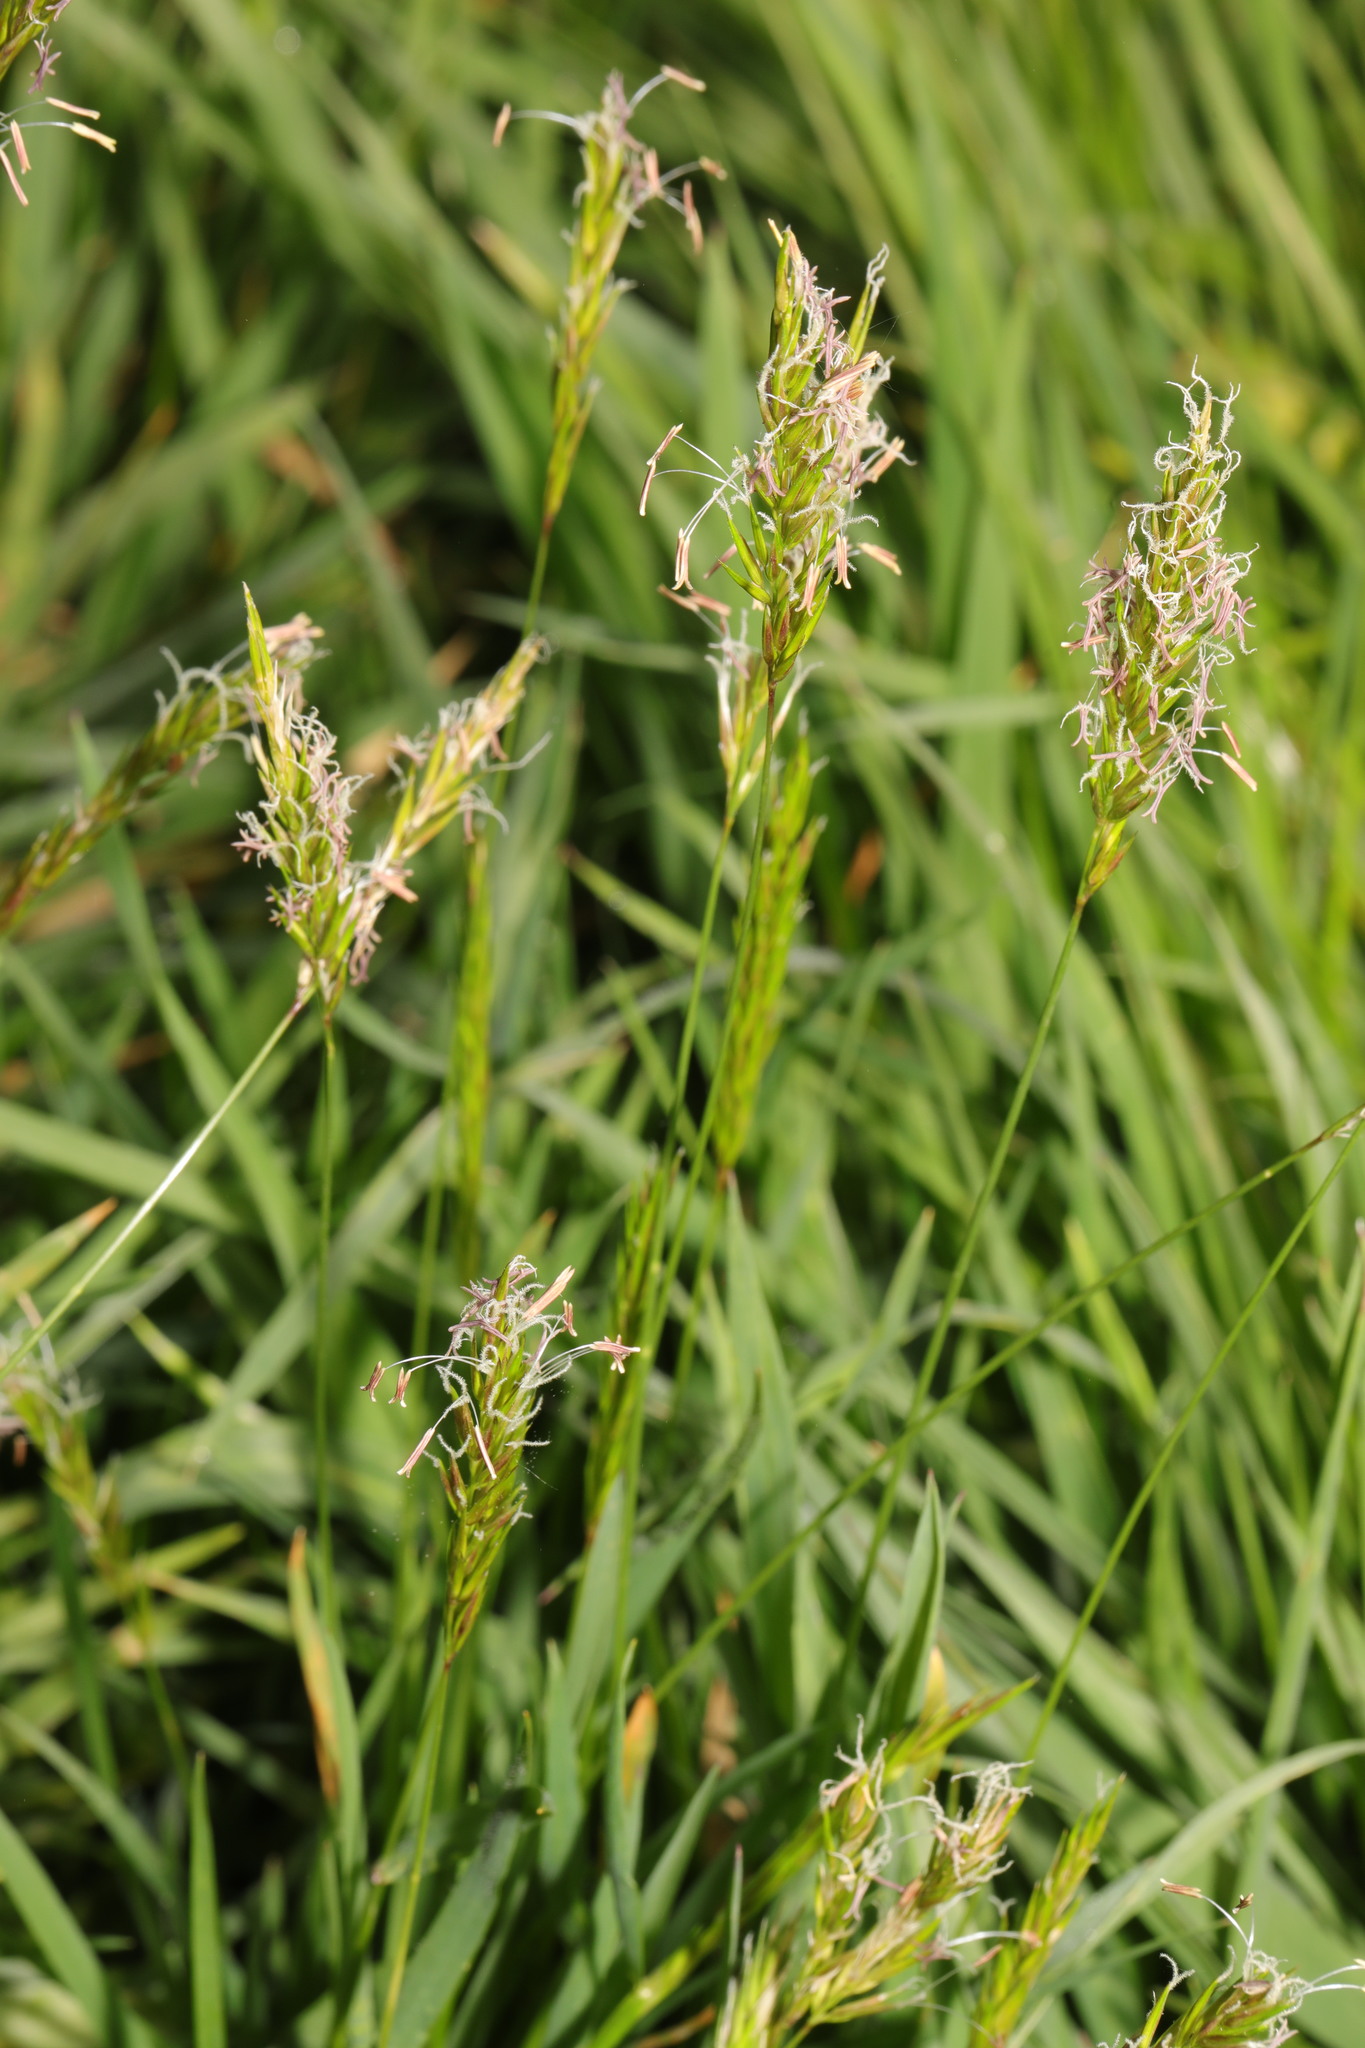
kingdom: Plantae
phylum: Tracheophyta
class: Liliopsida
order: Poales
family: Poaceae
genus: Anthoxanthum
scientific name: Anthoxanthum odoratum
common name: Sweet vernalgrass
